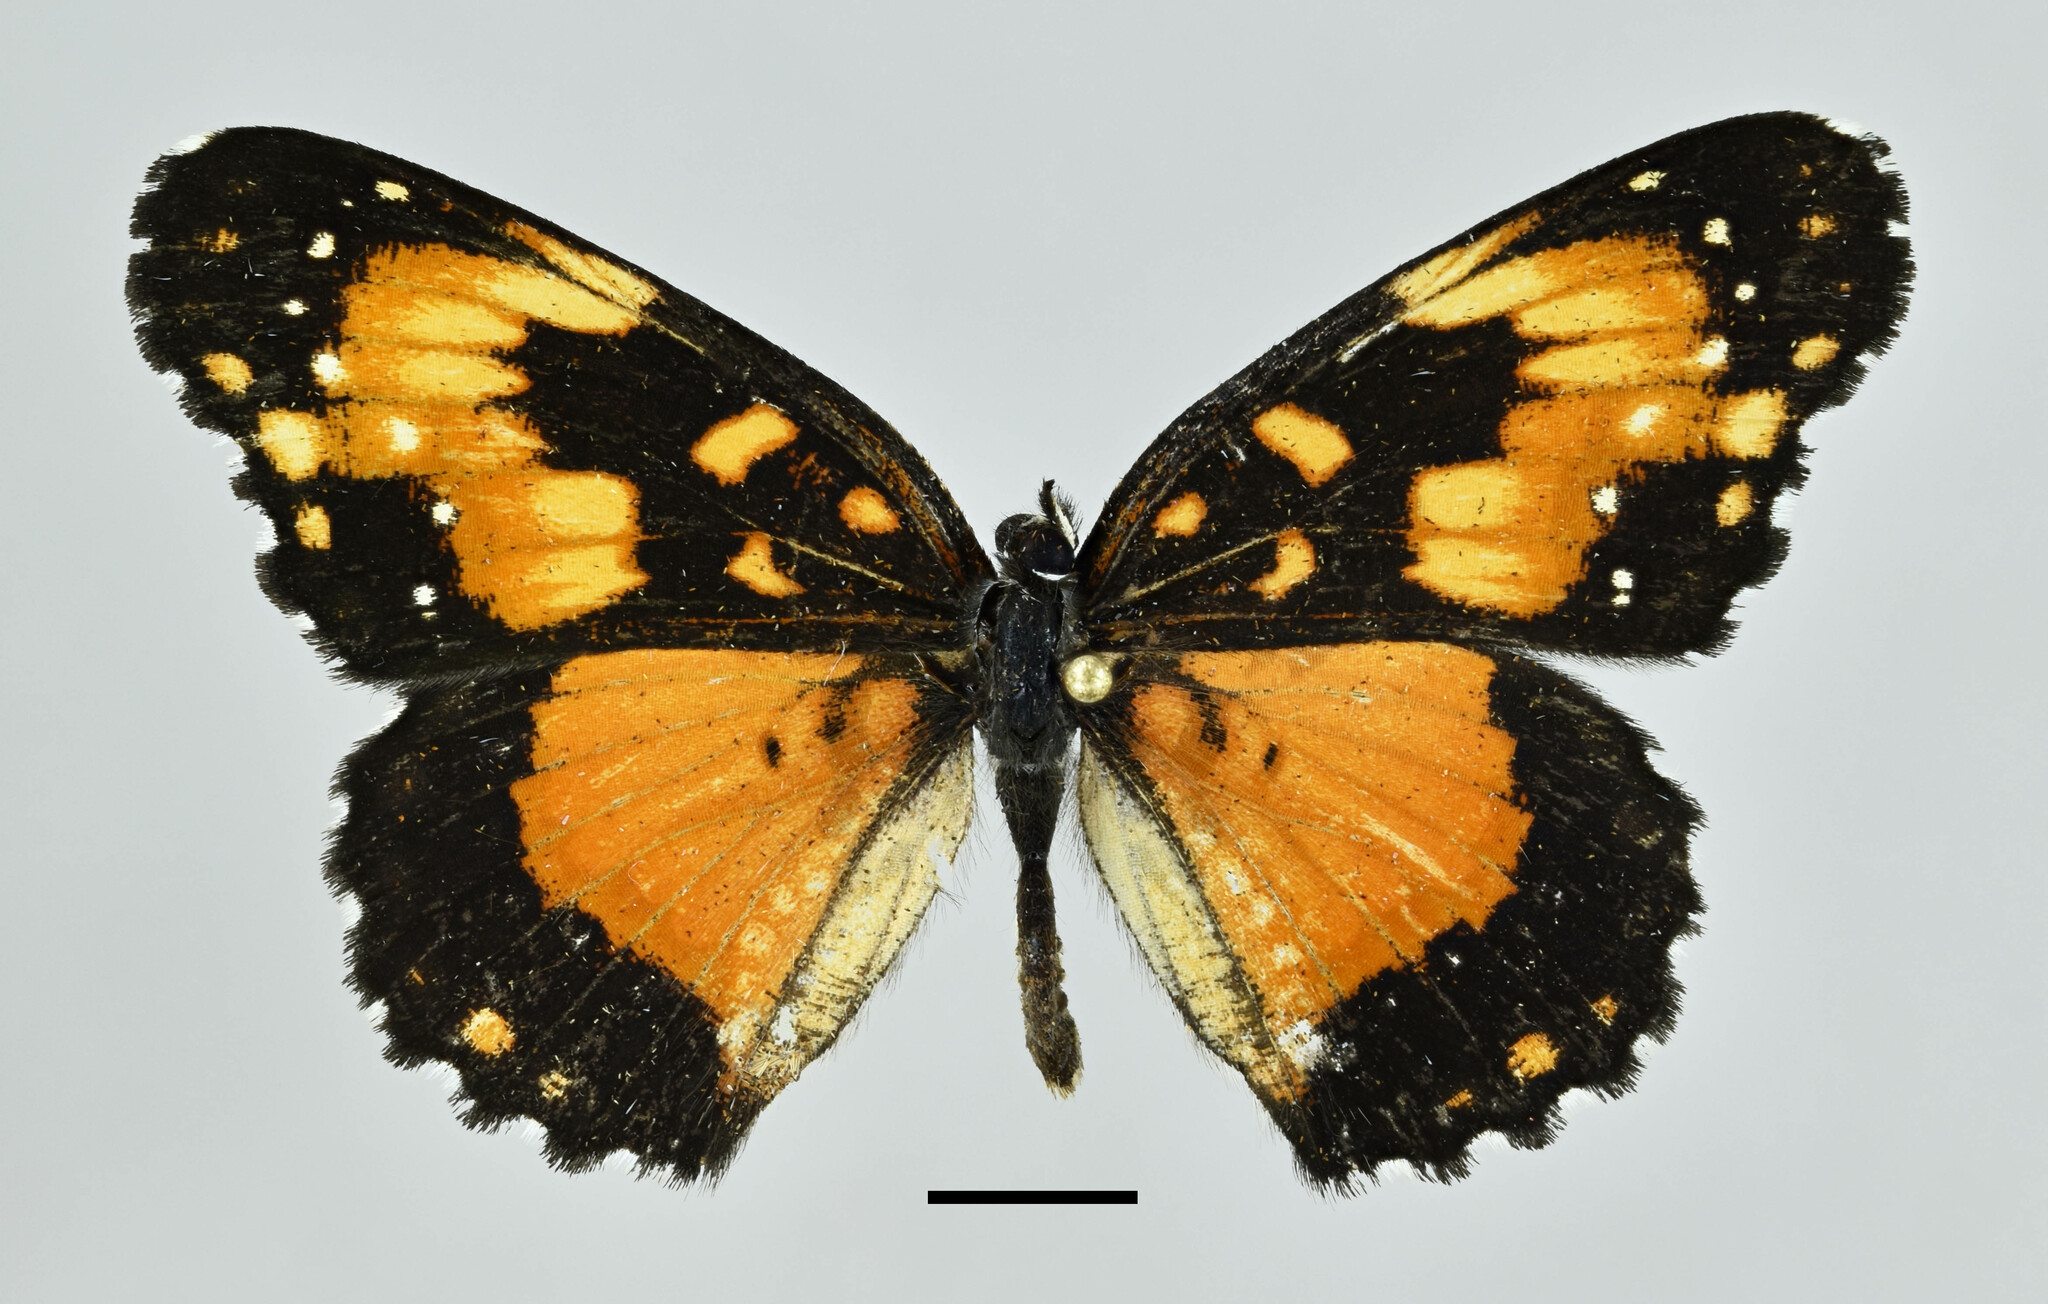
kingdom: Animalia
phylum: Arthropoda
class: Insecta
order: Lepidoptera
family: Nymphalidae
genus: Chlosyne
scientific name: Chlosyne lacinia
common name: Bordered patch
